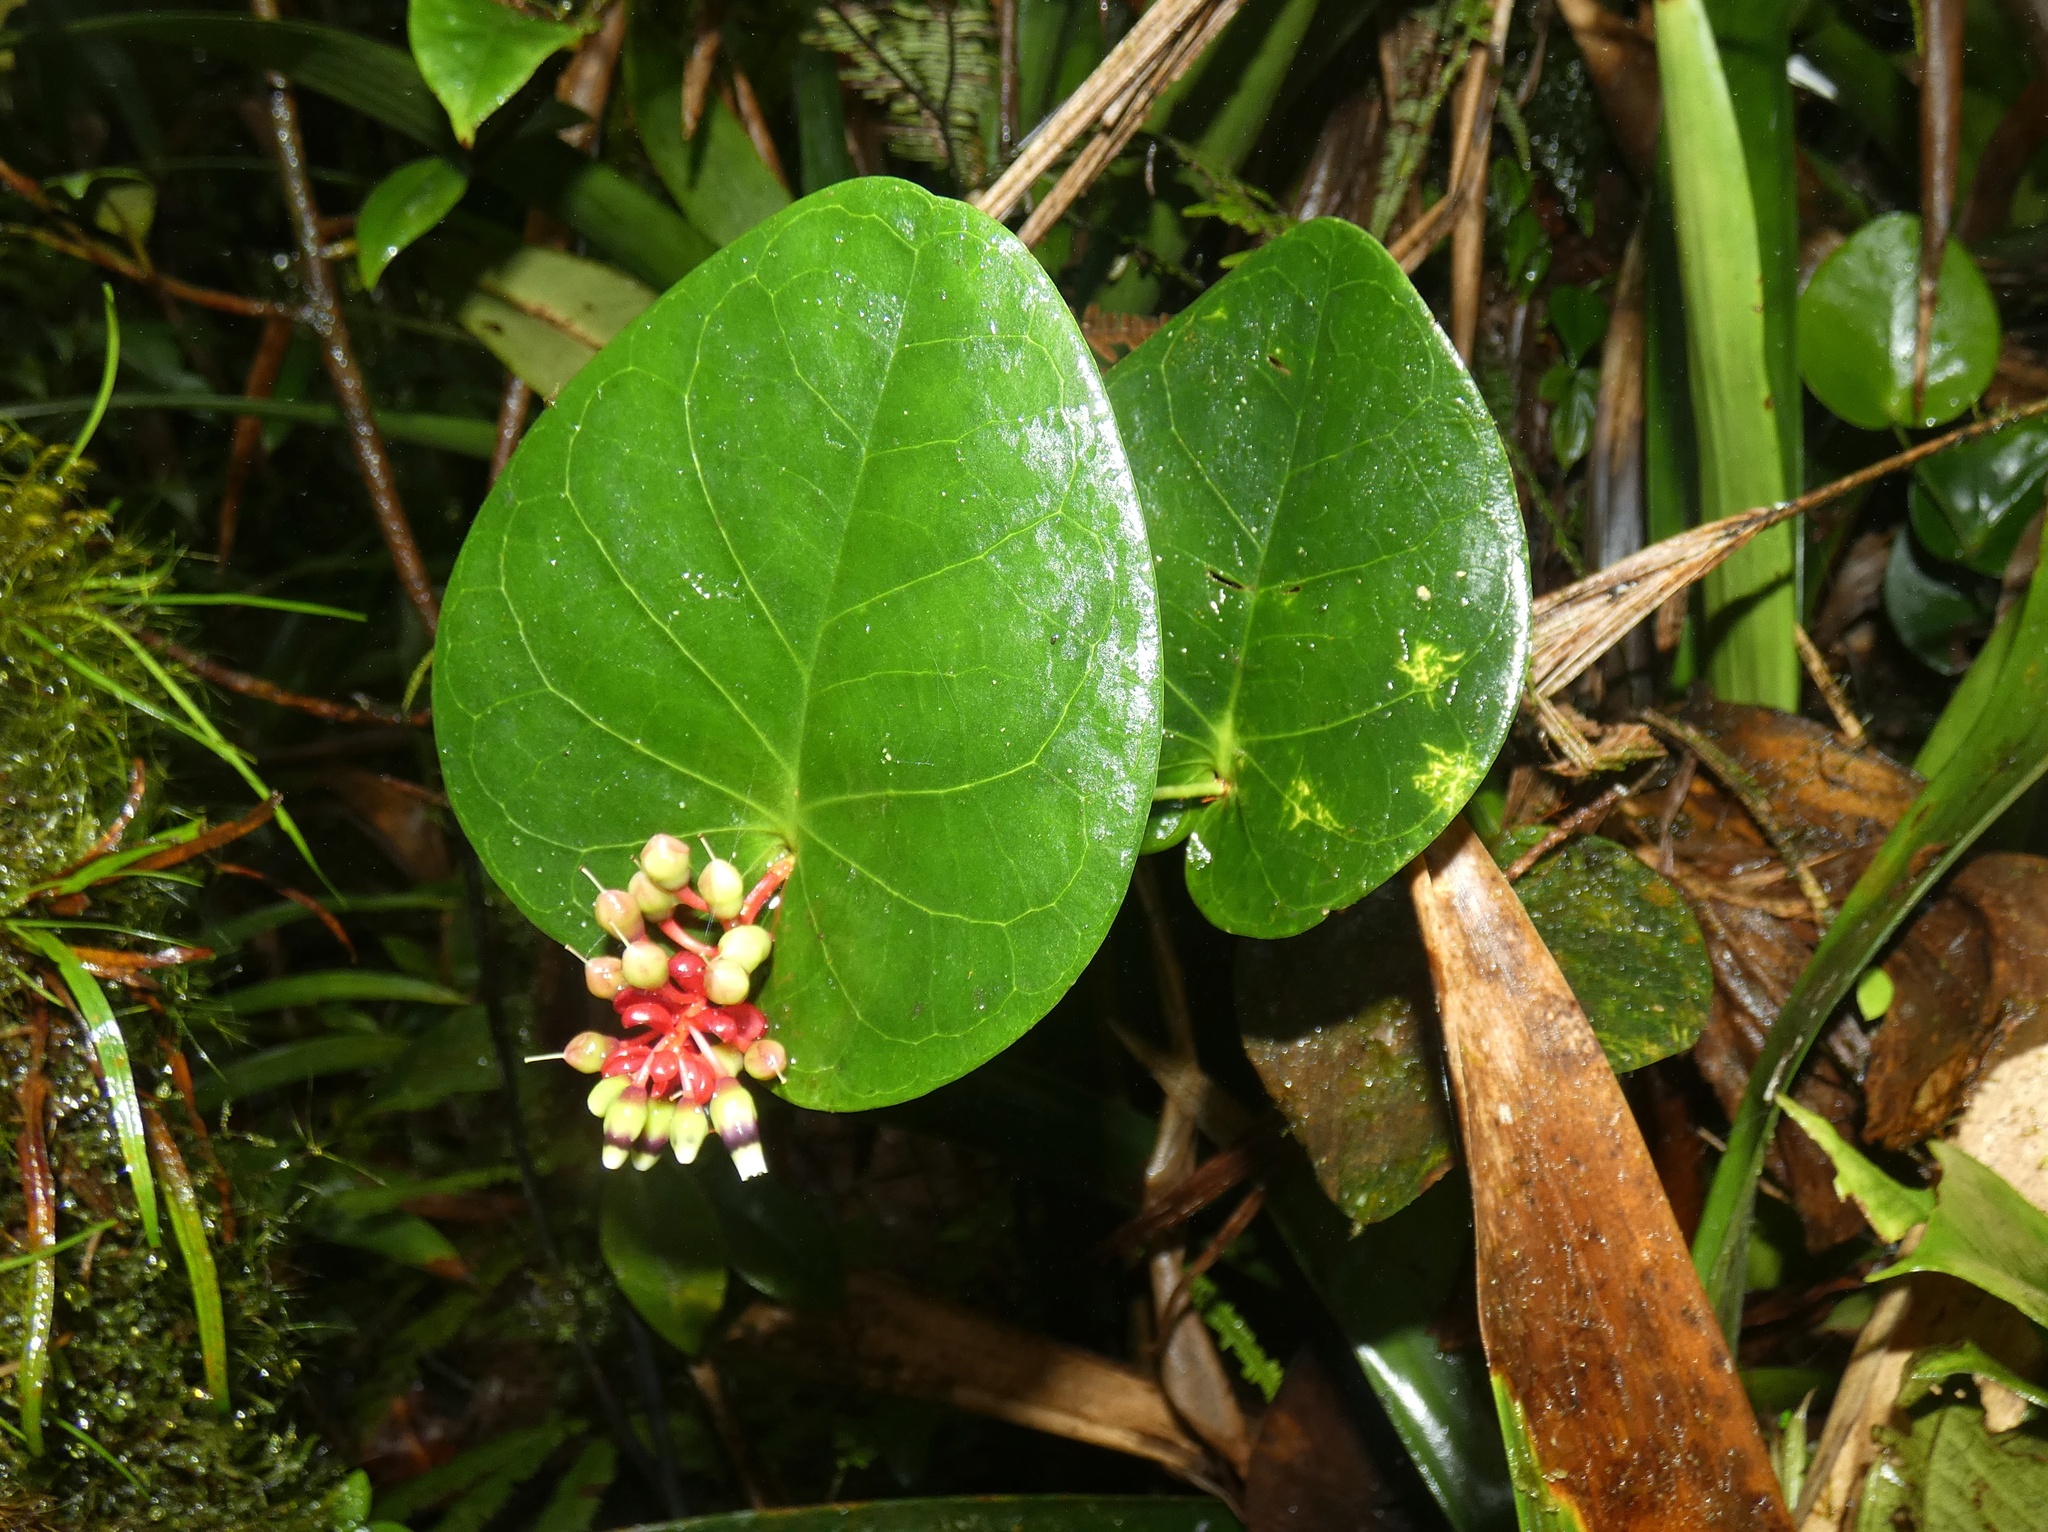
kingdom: Plantae
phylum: Tracheophyta
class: Magnoliopsida
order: Ericales
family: Ericaceae
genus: Cavendishia
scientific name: Cavendishia complectens
